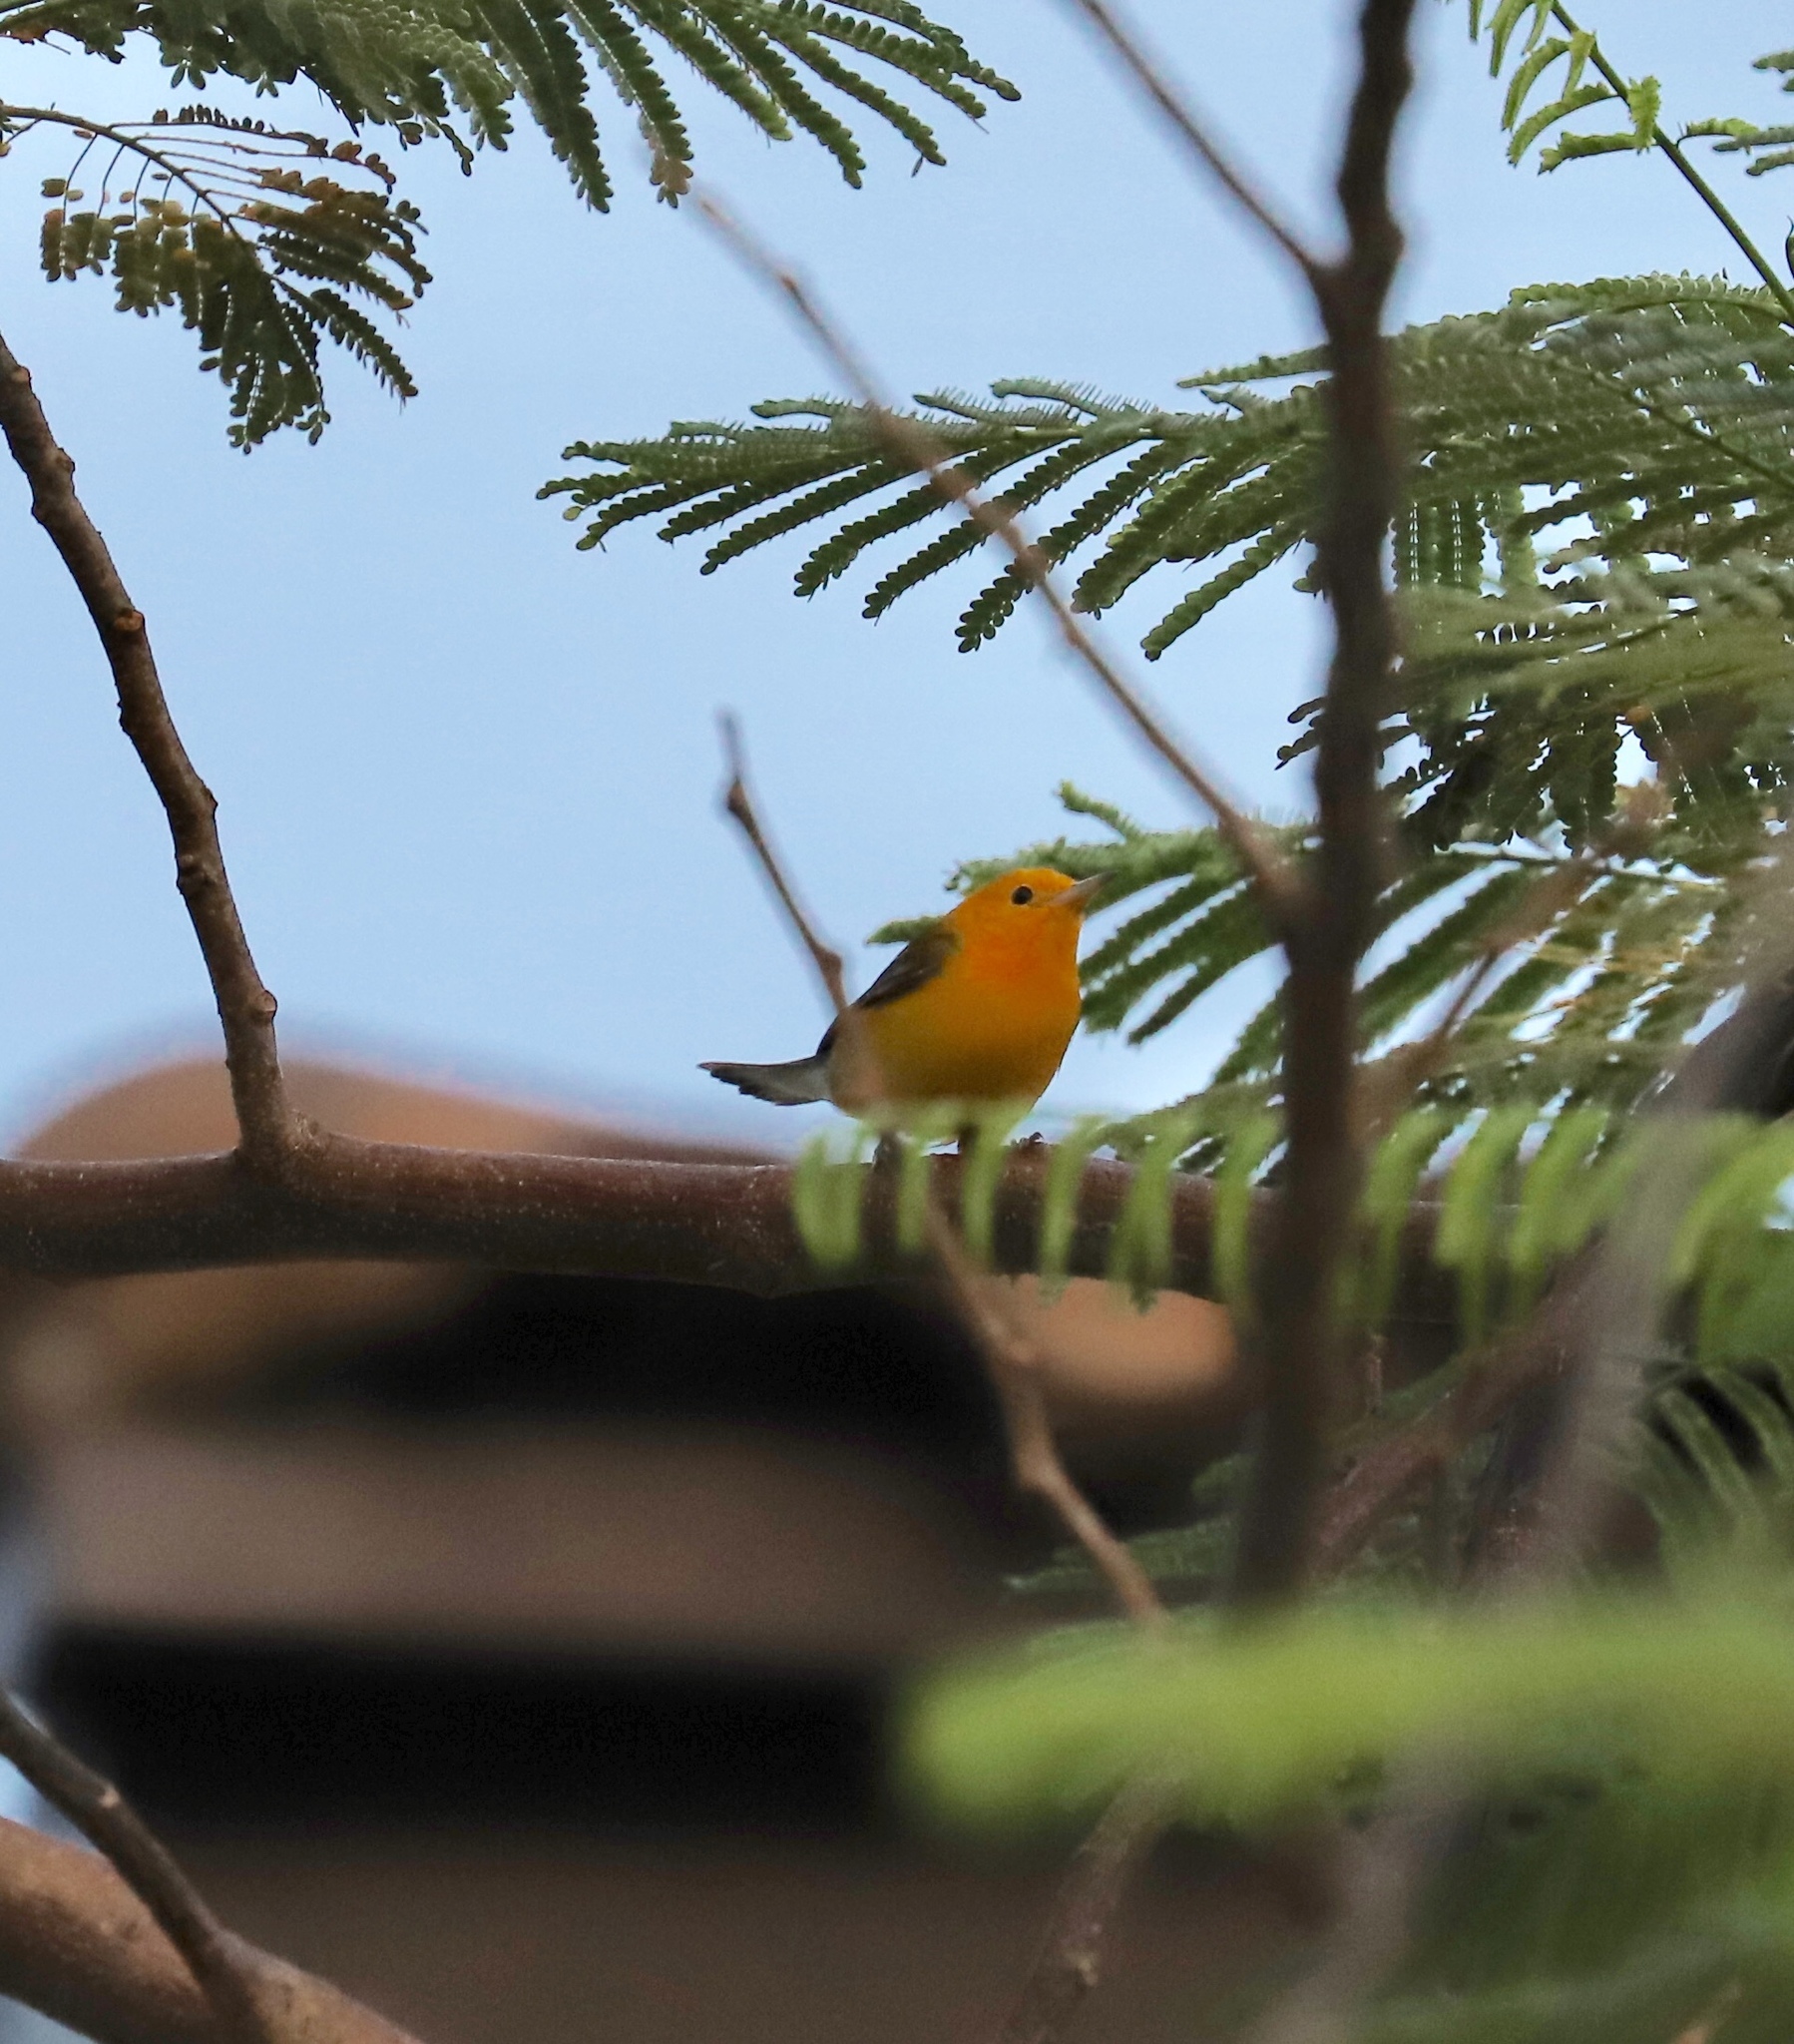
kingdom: Animalia
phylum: Chordata
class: Aves
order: Passeriformes
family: Parulidae
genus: Protonotaria
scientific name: Protonotaria citrea
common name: Prothonotary warbler
